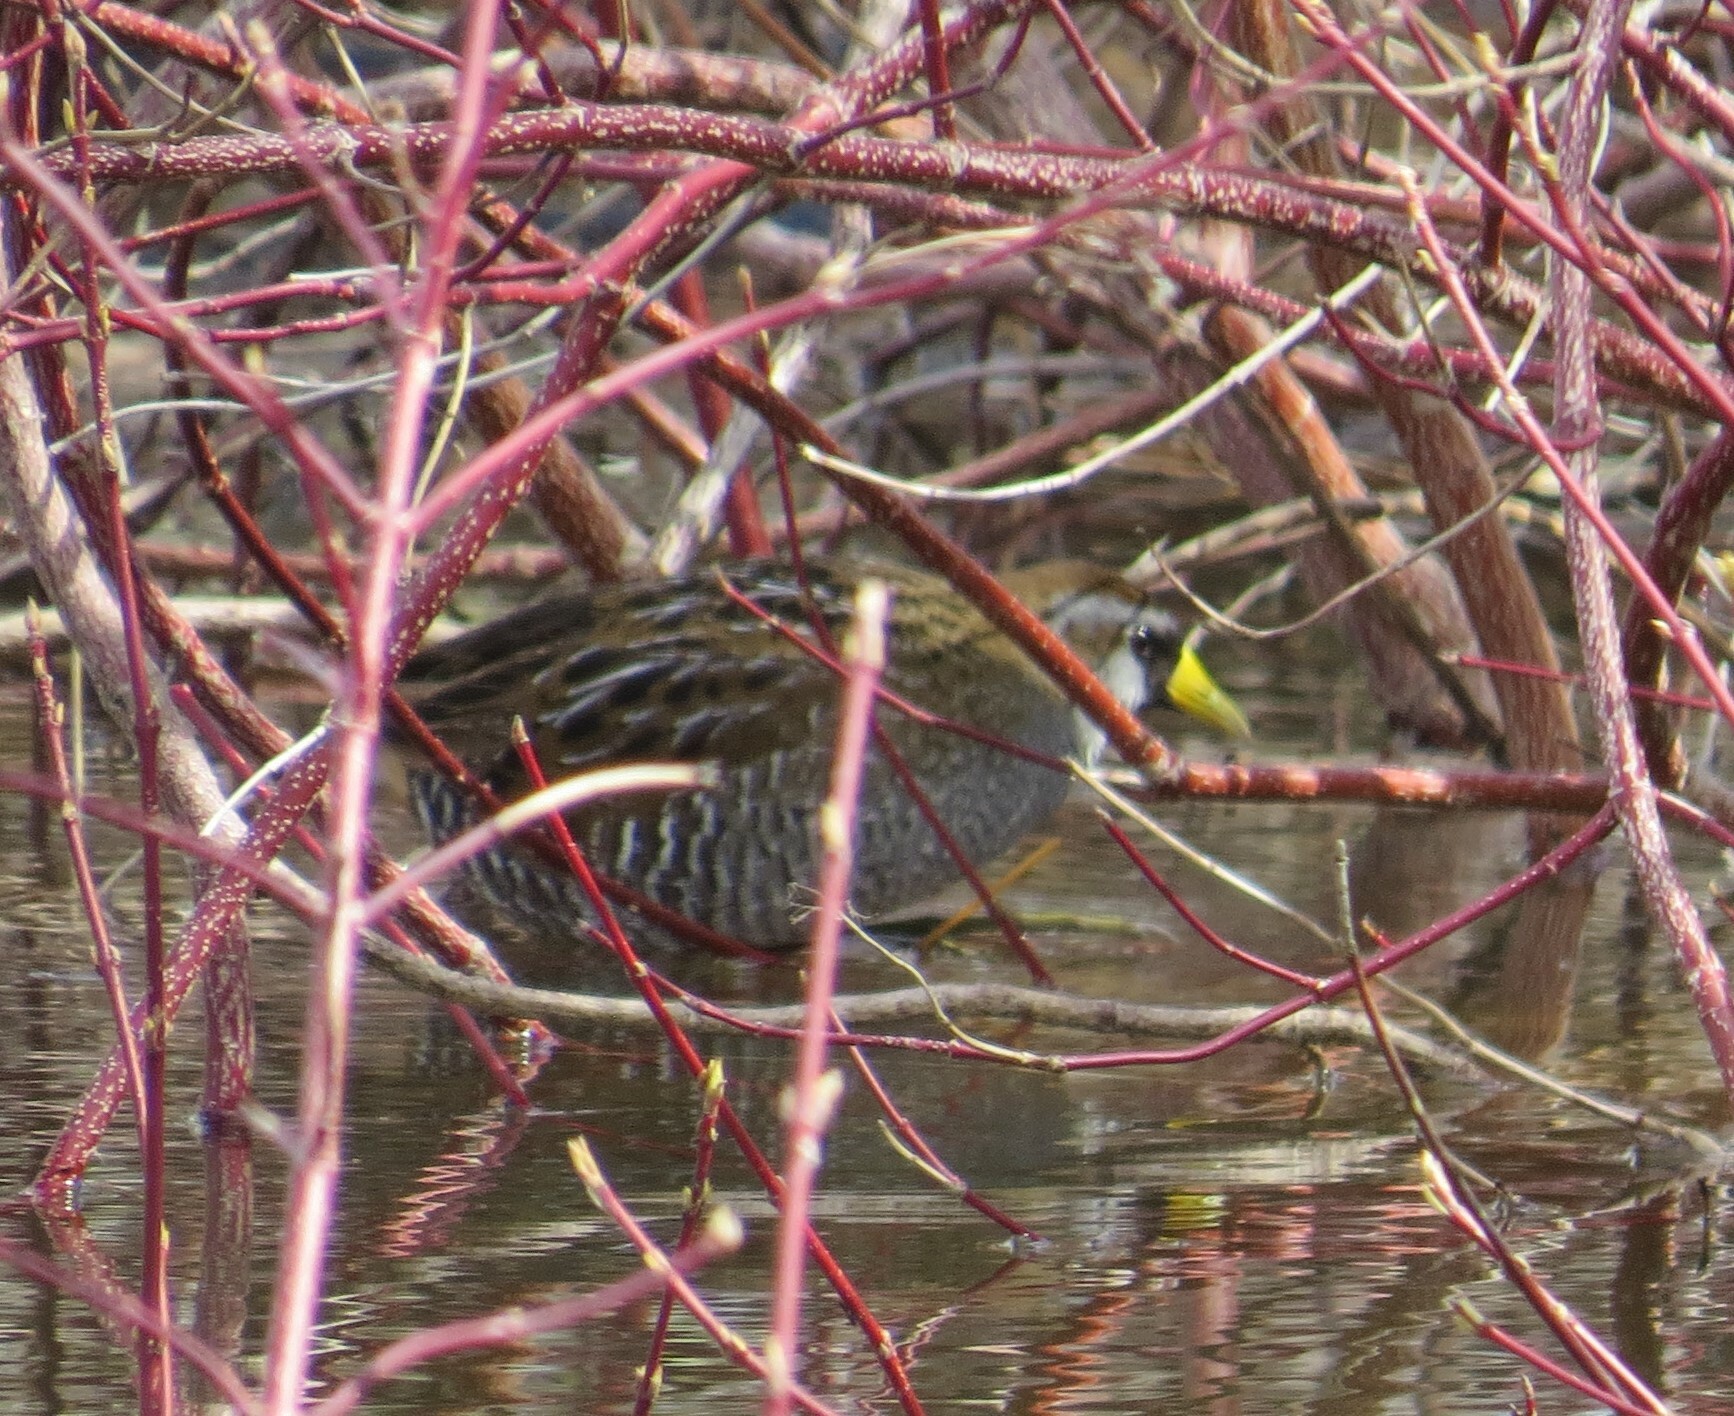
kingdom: Animalia
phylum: Chordata
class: Aves
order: Gruiformes
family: Rallidae
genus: Porzana
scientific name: Porzana carolina
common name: Sora
